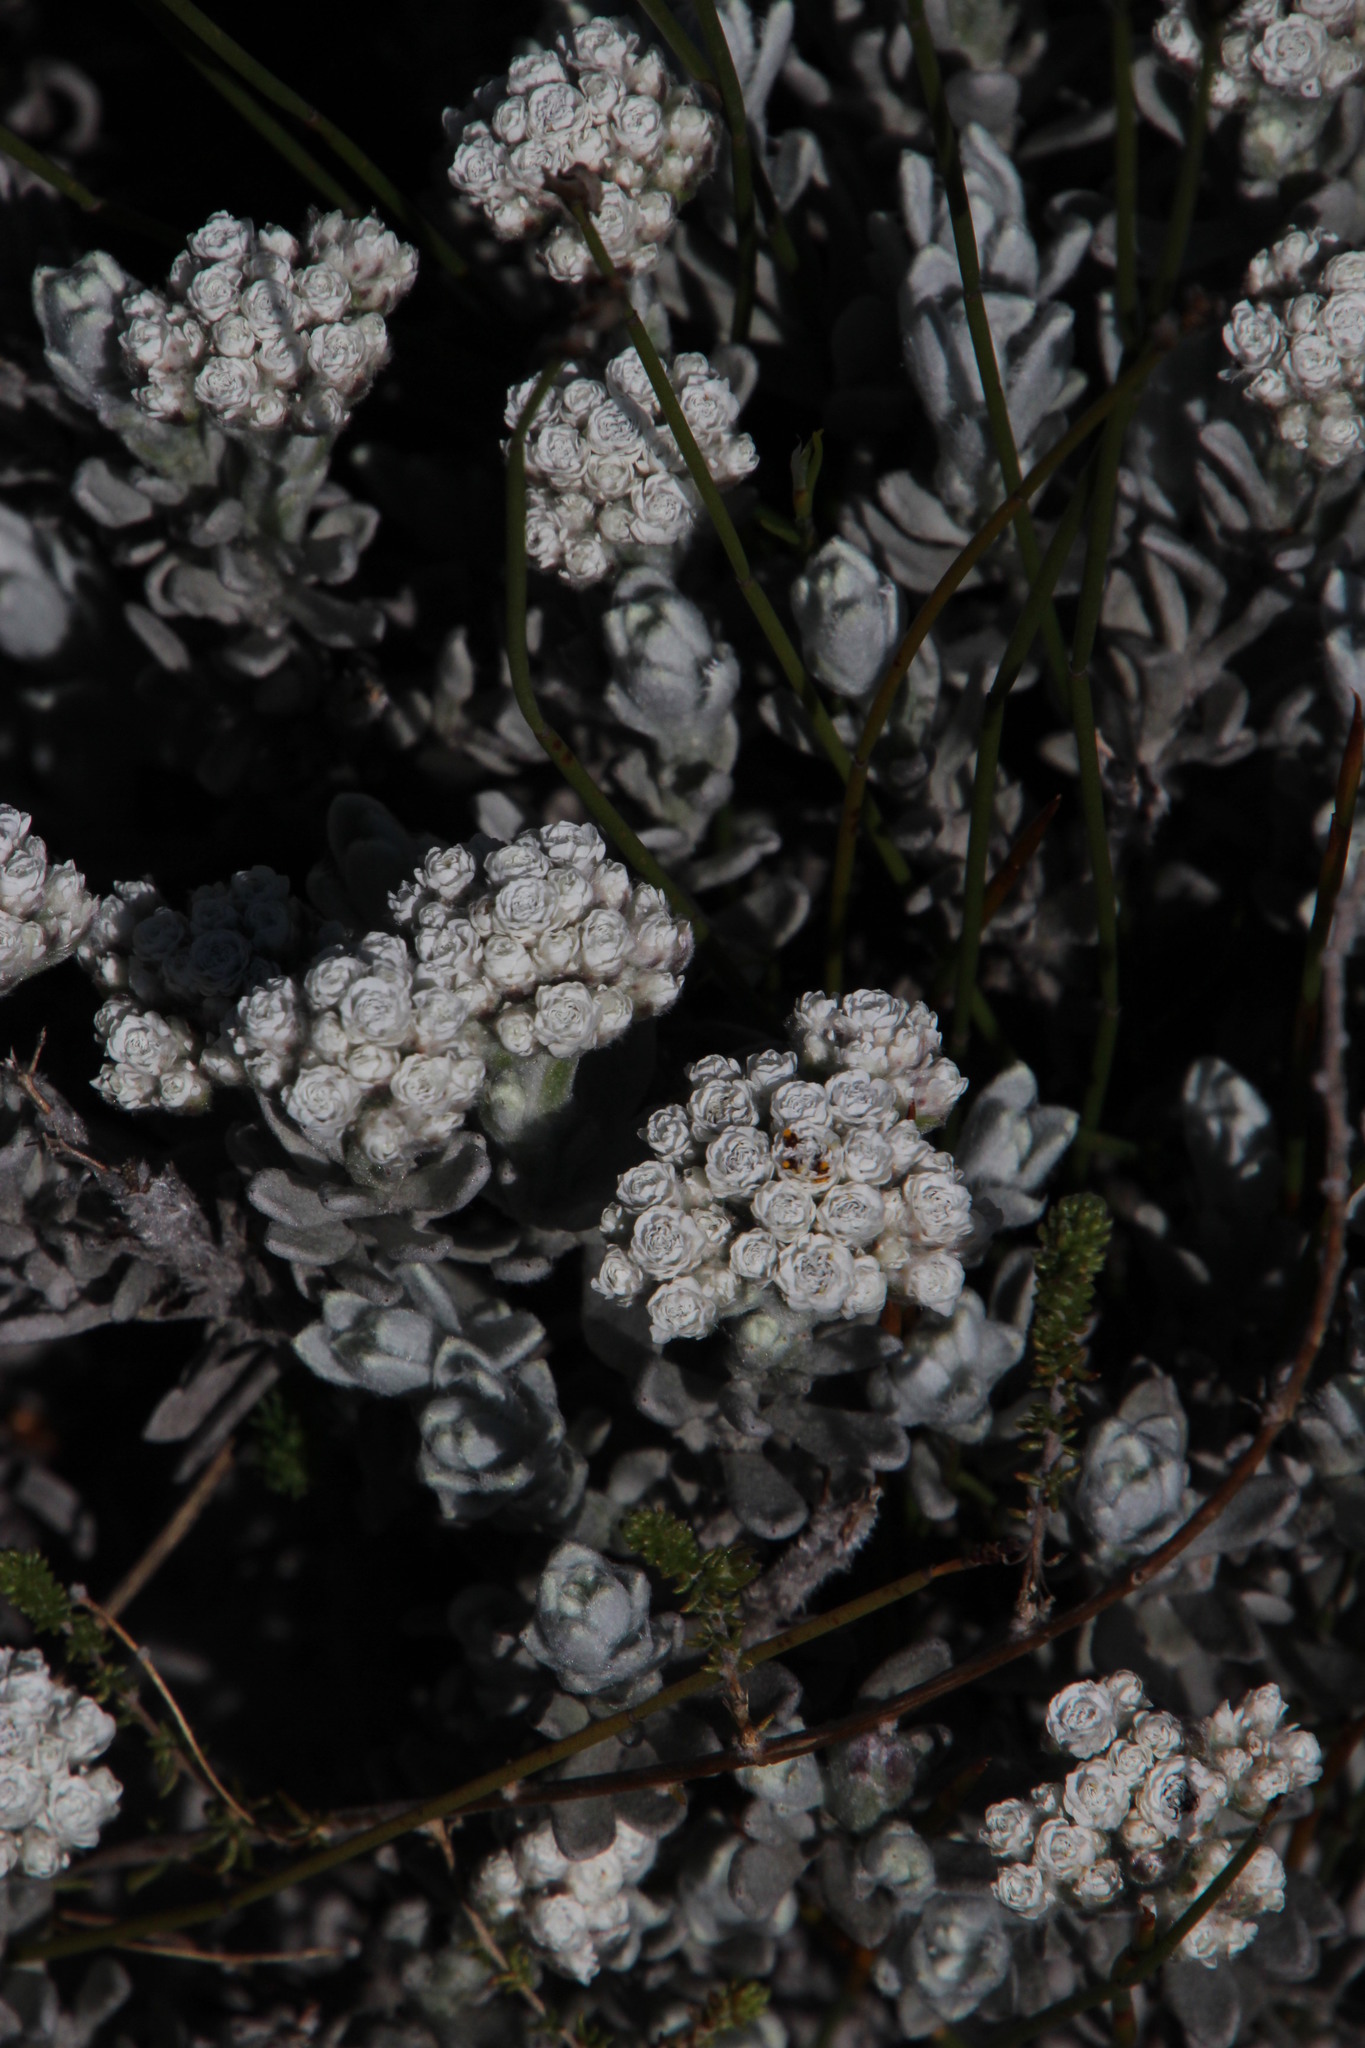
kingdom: Plantae
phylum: Tracheophyta
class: Magnoliopsida
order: Asterales
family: Asteraceae
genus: Petalacte
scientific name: Petalacte coronata
